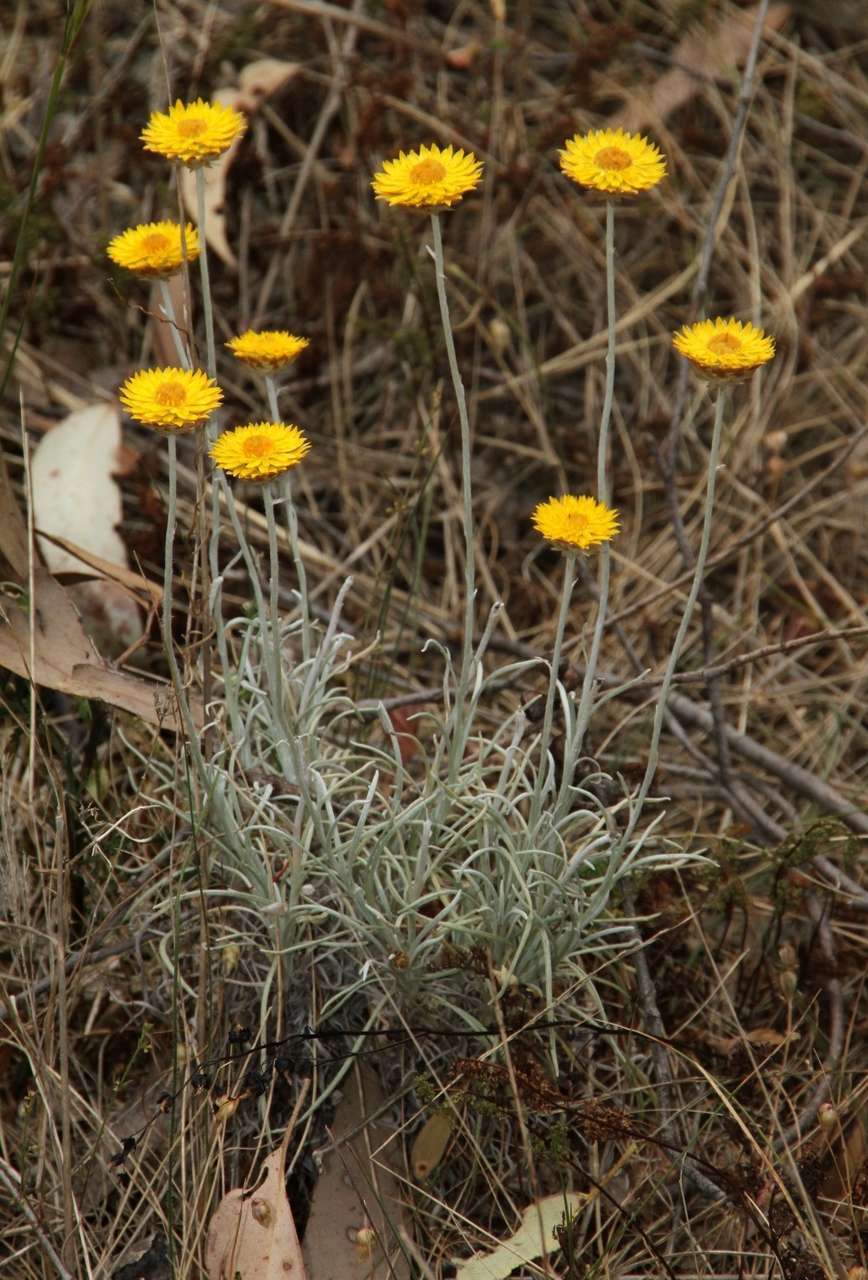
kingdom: Plantae
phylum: Tracheophyta
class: Magnoliopsida
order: Asterales
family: Asteraceae
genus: Leucochrysum
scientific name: Leucochrysum albicans
